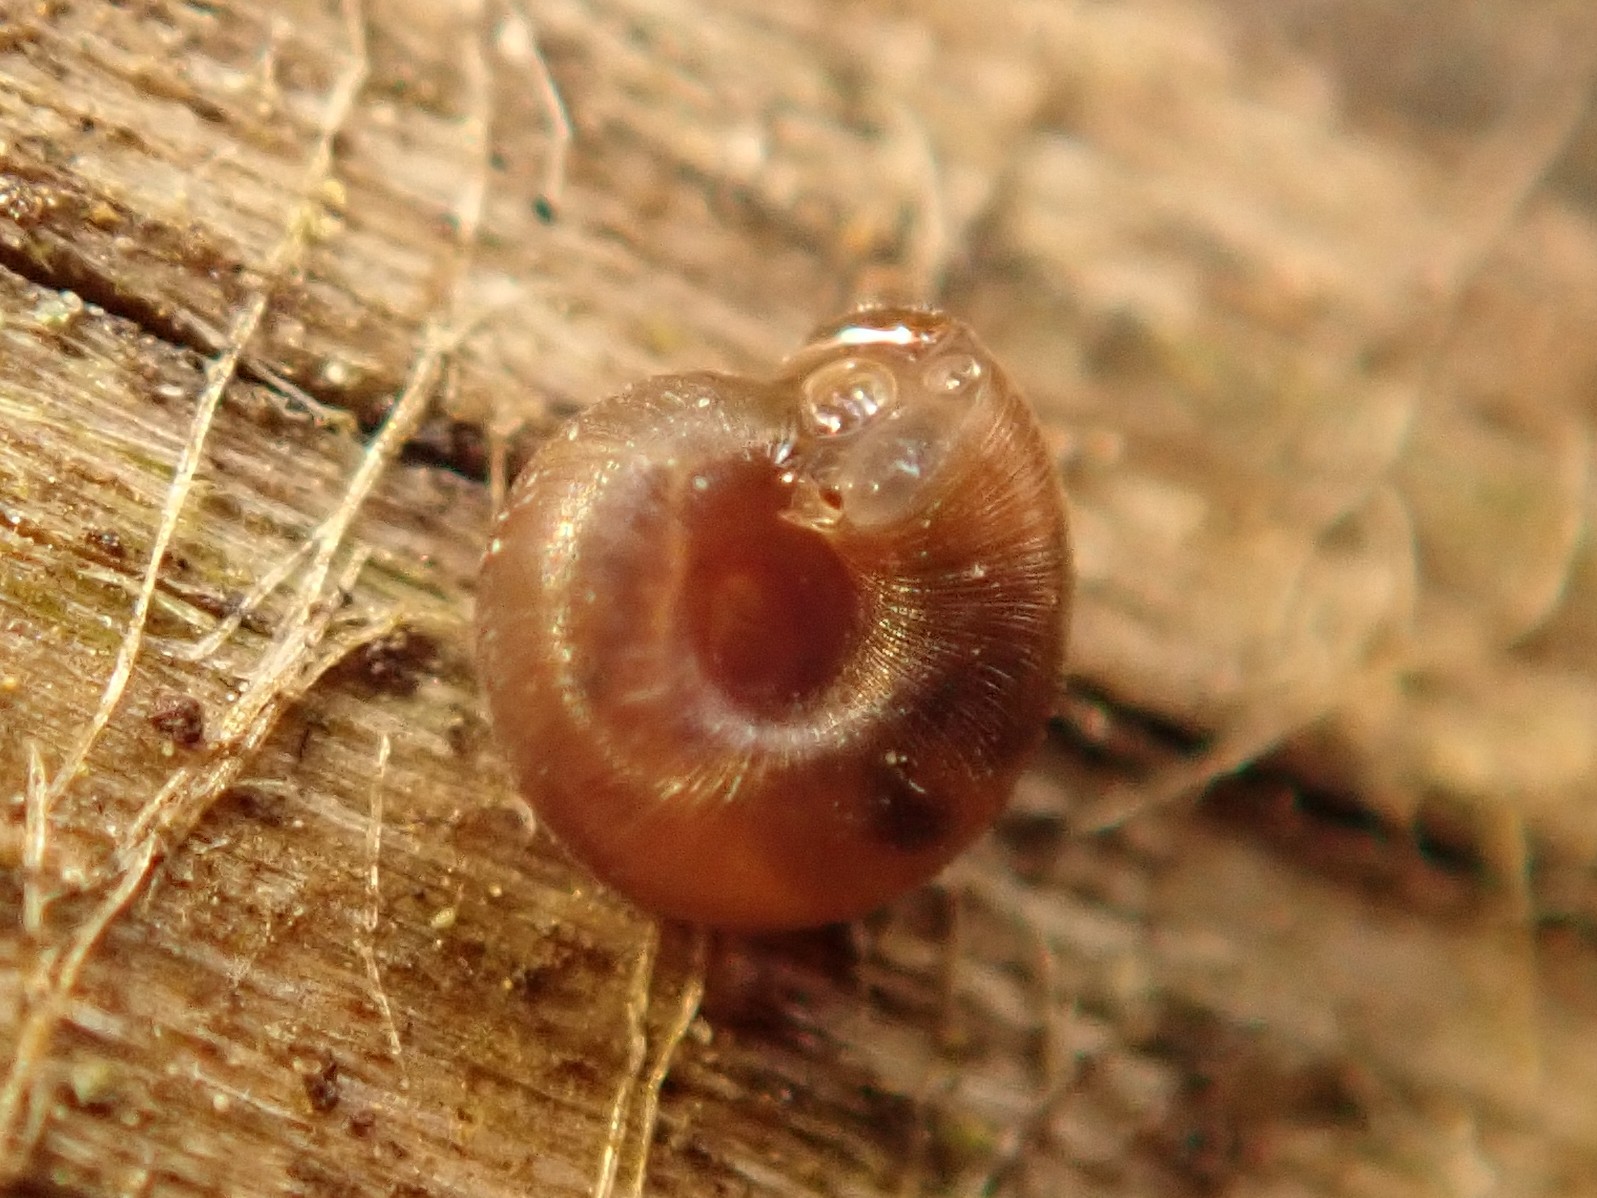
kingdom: Animalia
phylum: Mollusca
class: Gastropoda
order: Stylommatophora
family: Punctidae
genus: Punctum
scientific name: Punctum pygmaeum
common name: Dwarf snail
